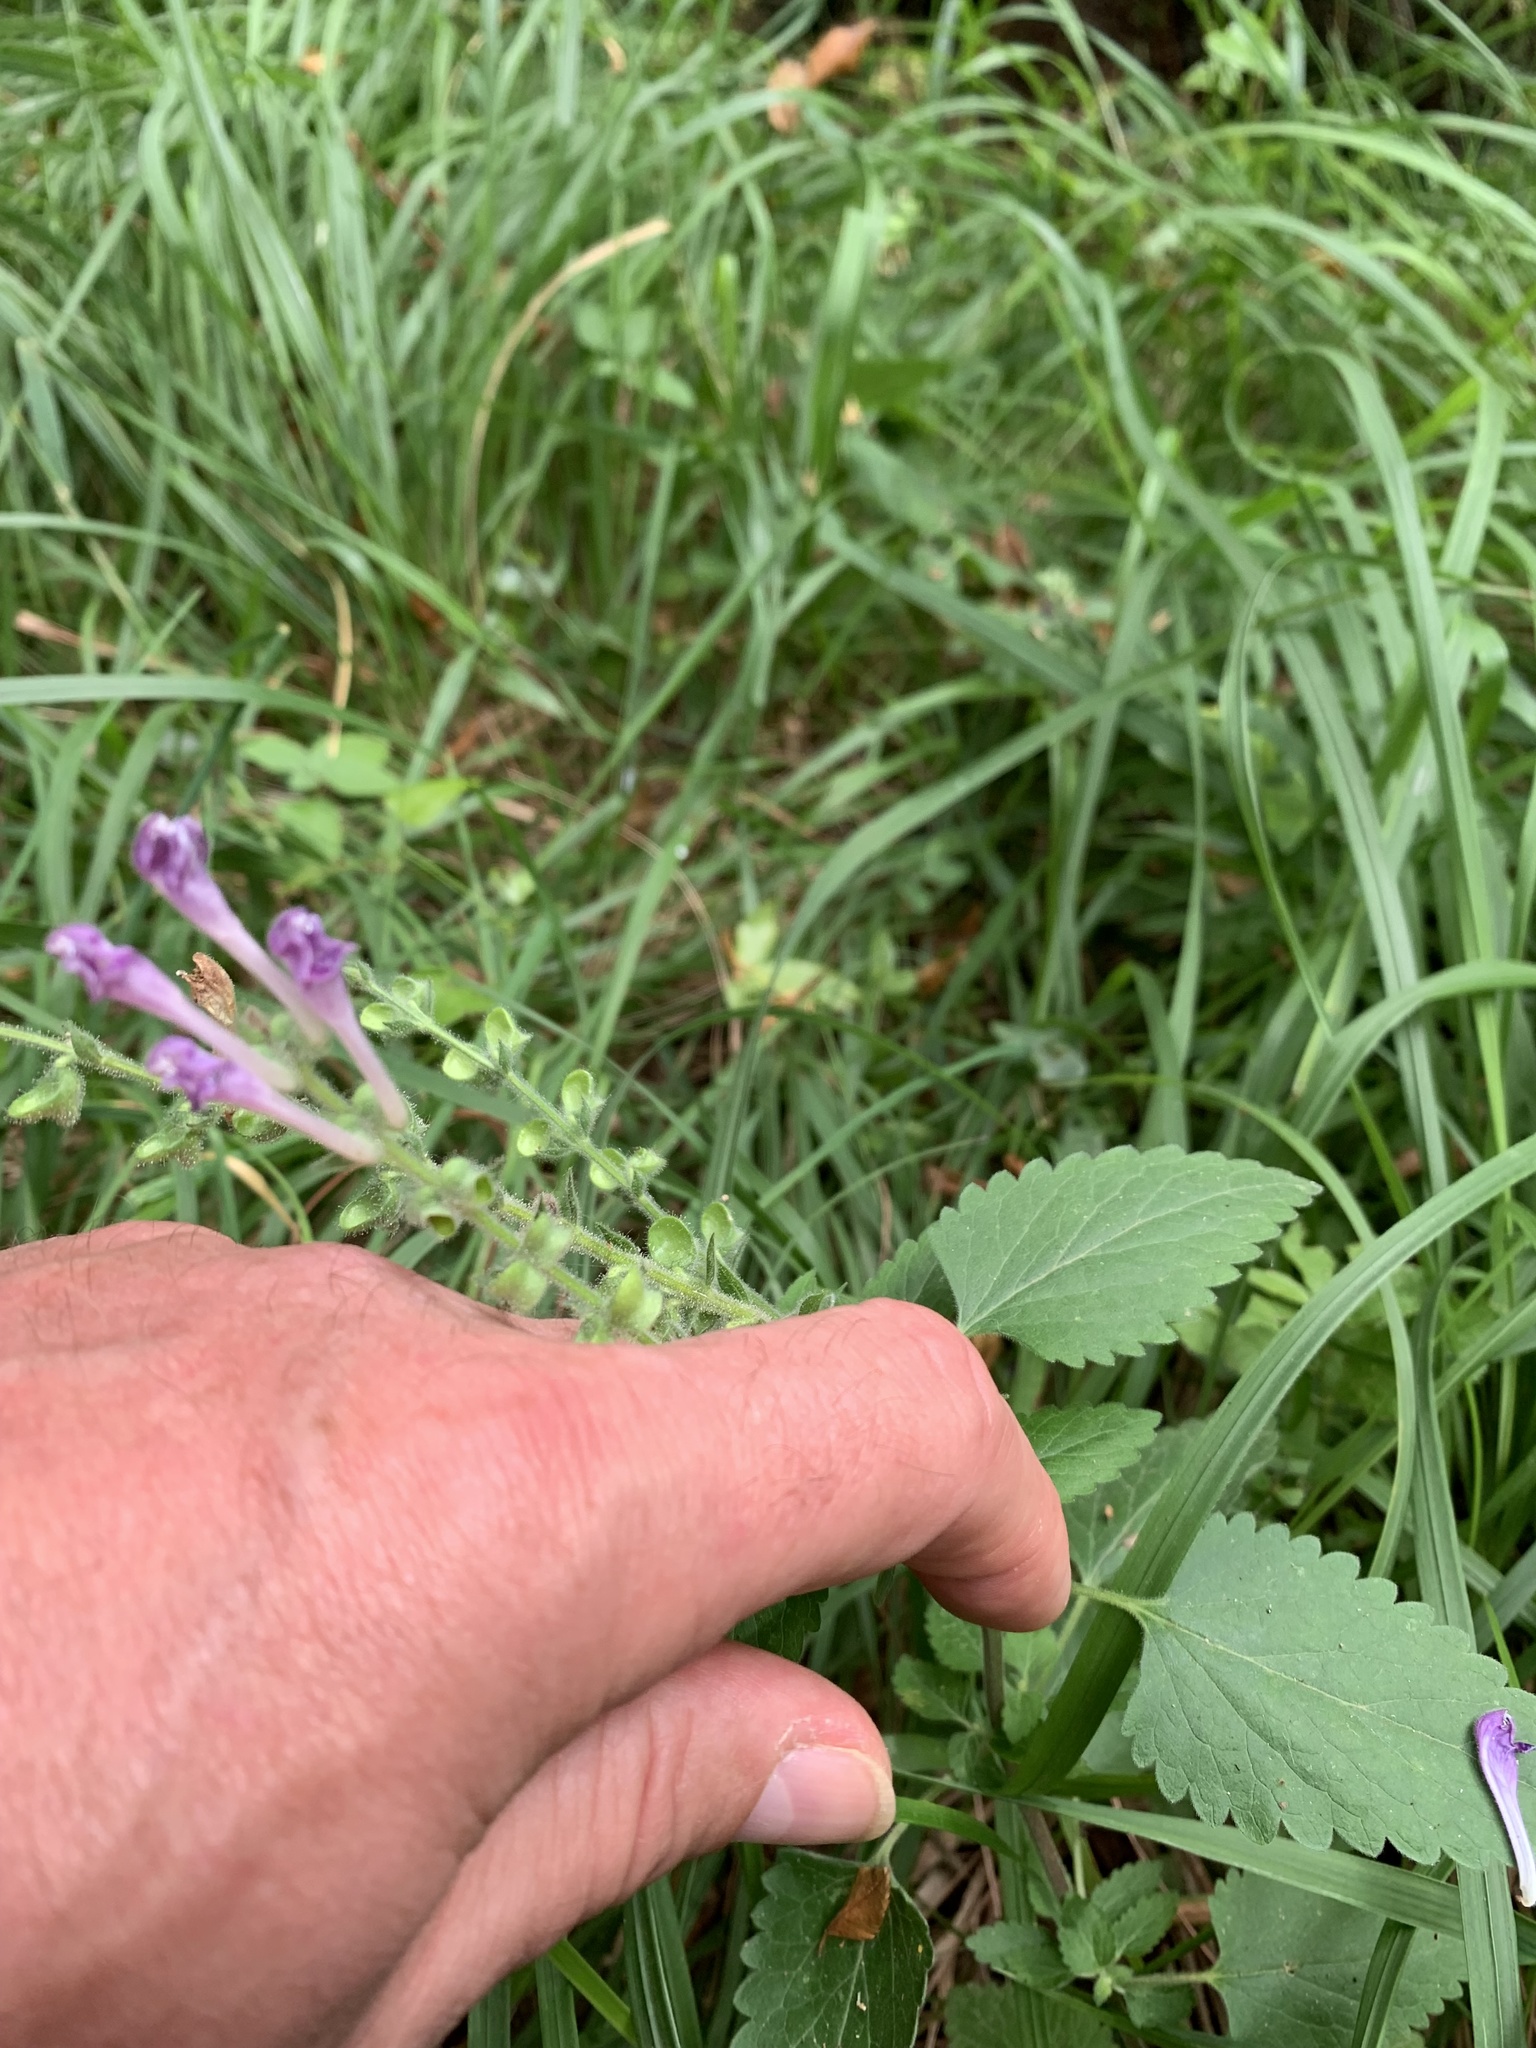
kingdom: Plantae
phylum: Tracheophyta
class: Magnoliopsida
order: Lamiales
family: Lamiaceae
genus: Scutellaria
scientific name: Scutellaria columnae
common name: Large skullcap
